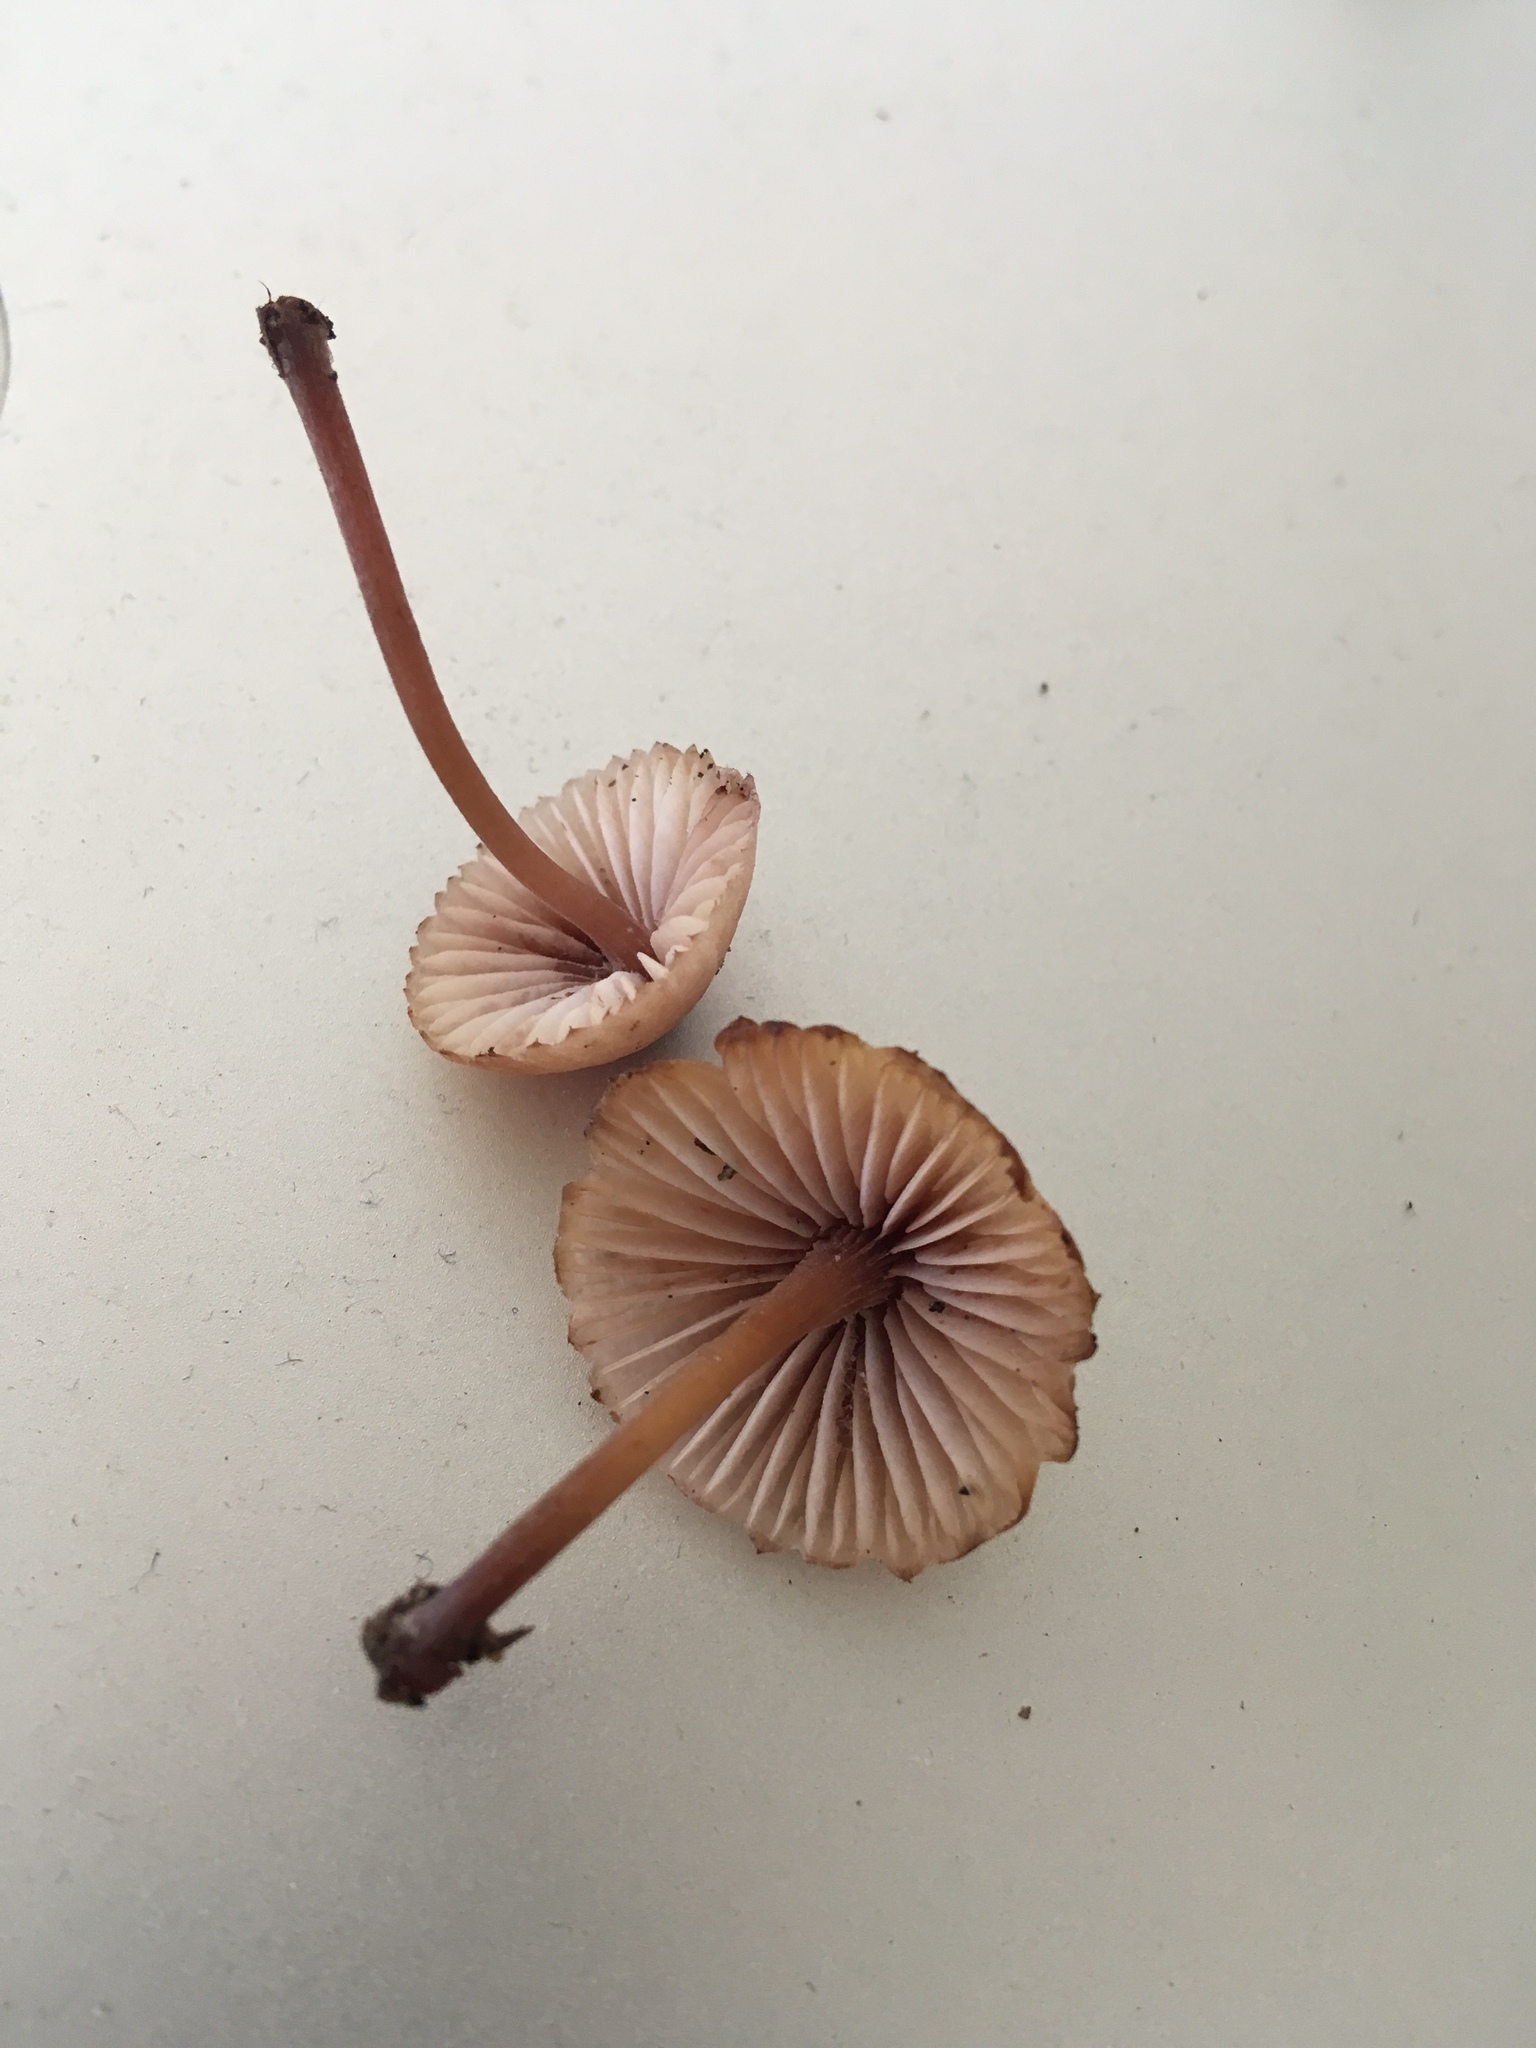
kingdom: Fungi
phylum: Basidiomycota
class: Agaricomycetes
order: Agaricales
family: Mycenaceae
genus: Mycena
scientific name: Mycena haematopus
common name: Burgundydrop bonnet
